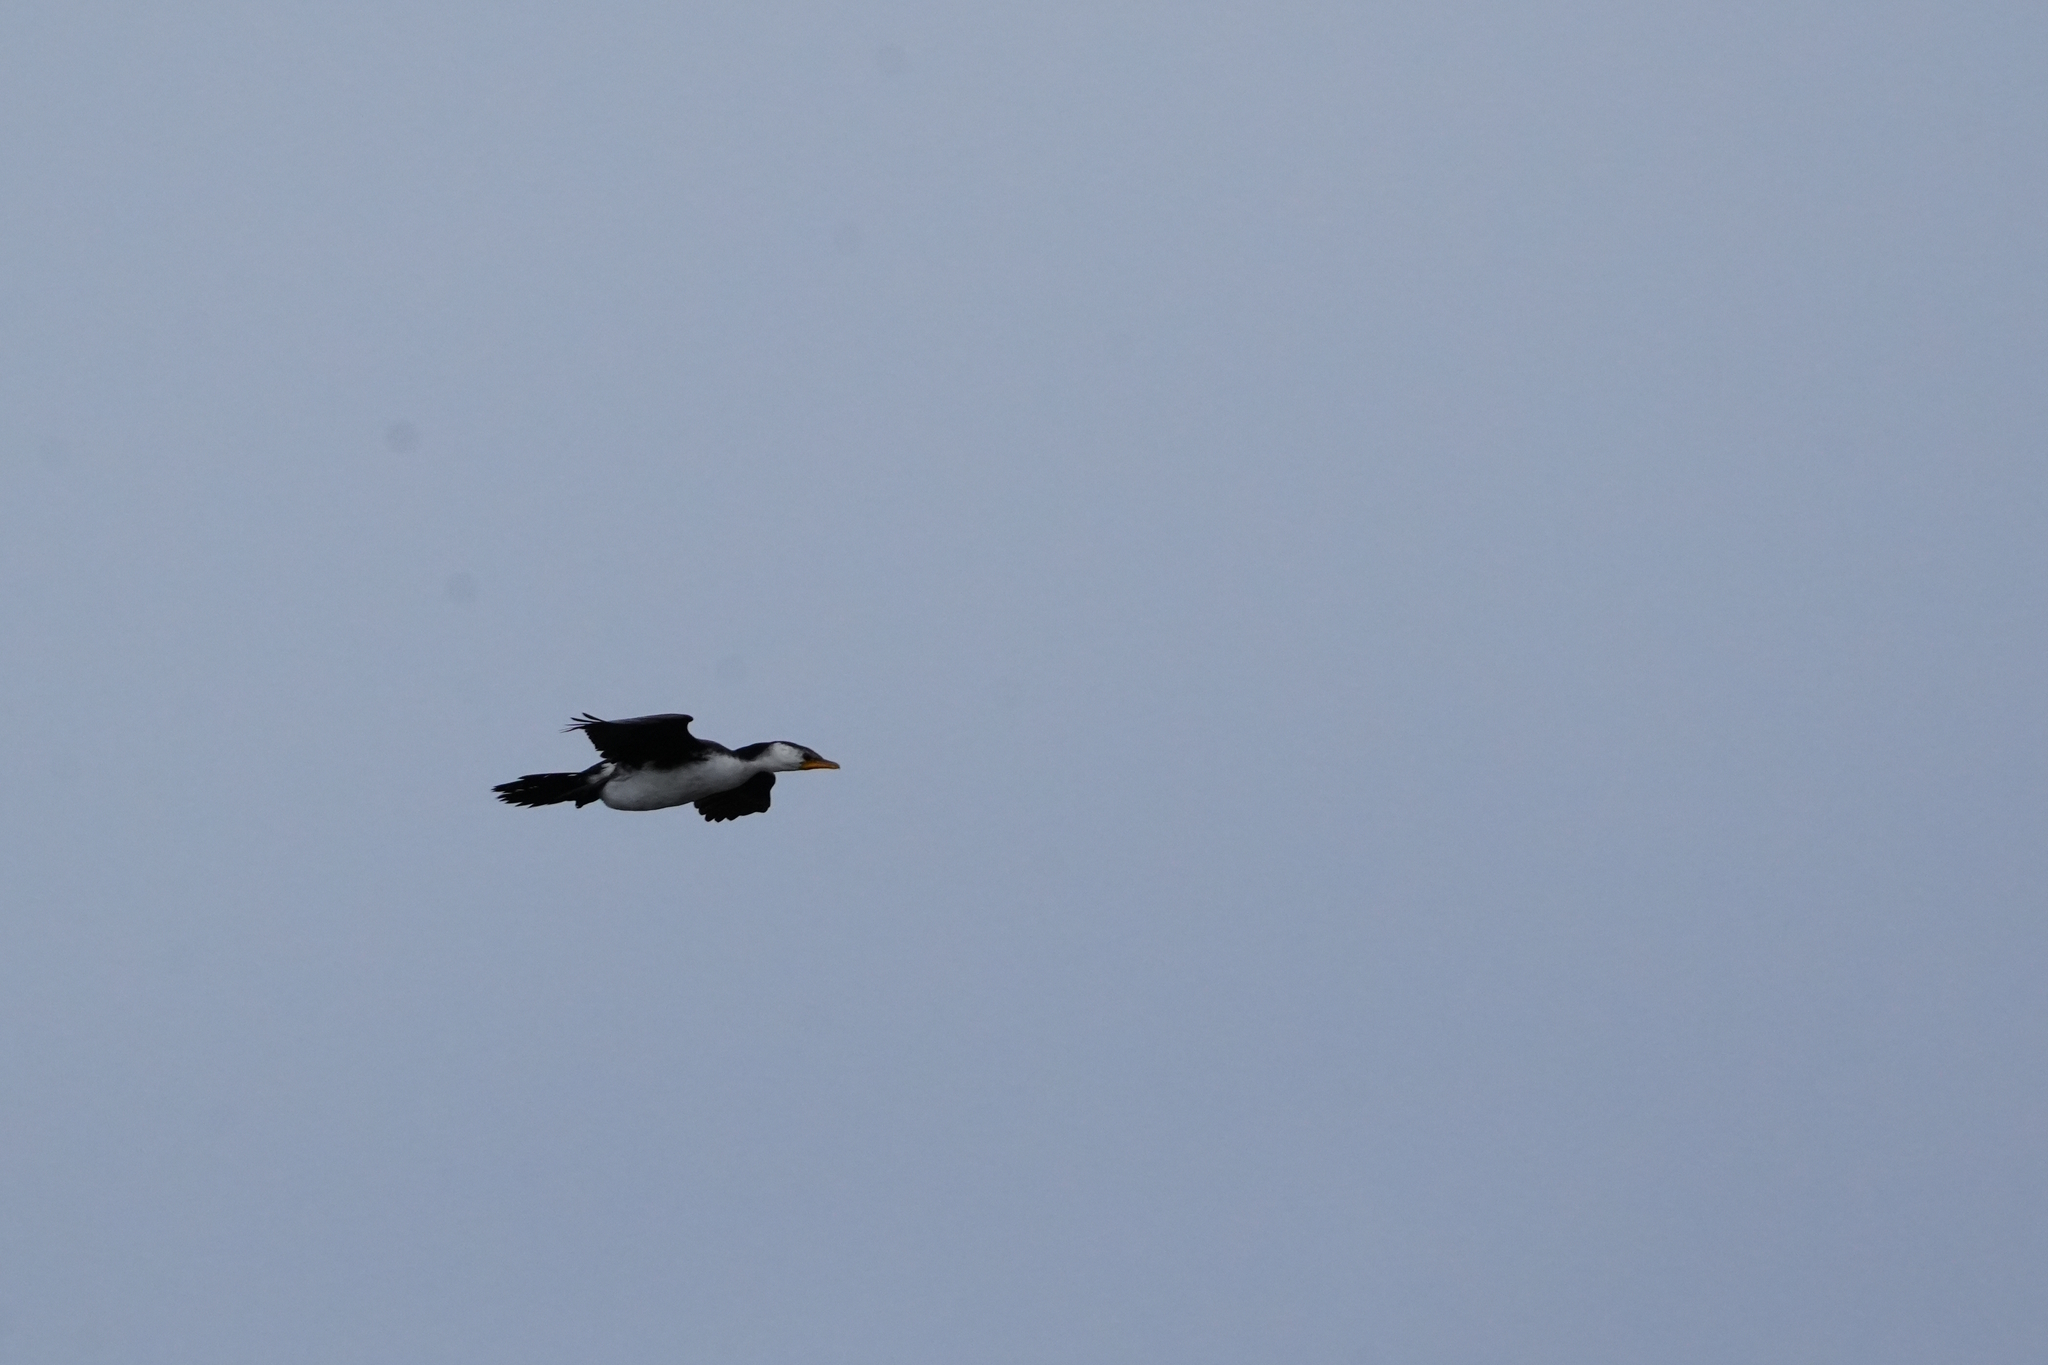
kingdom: Animalia
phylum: Chordata
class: Aves
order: Suliformes
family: Phalacrocoracidae
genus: Microcarbo
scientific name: Microcarbo melanoleucos
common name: Little pied cormorant
